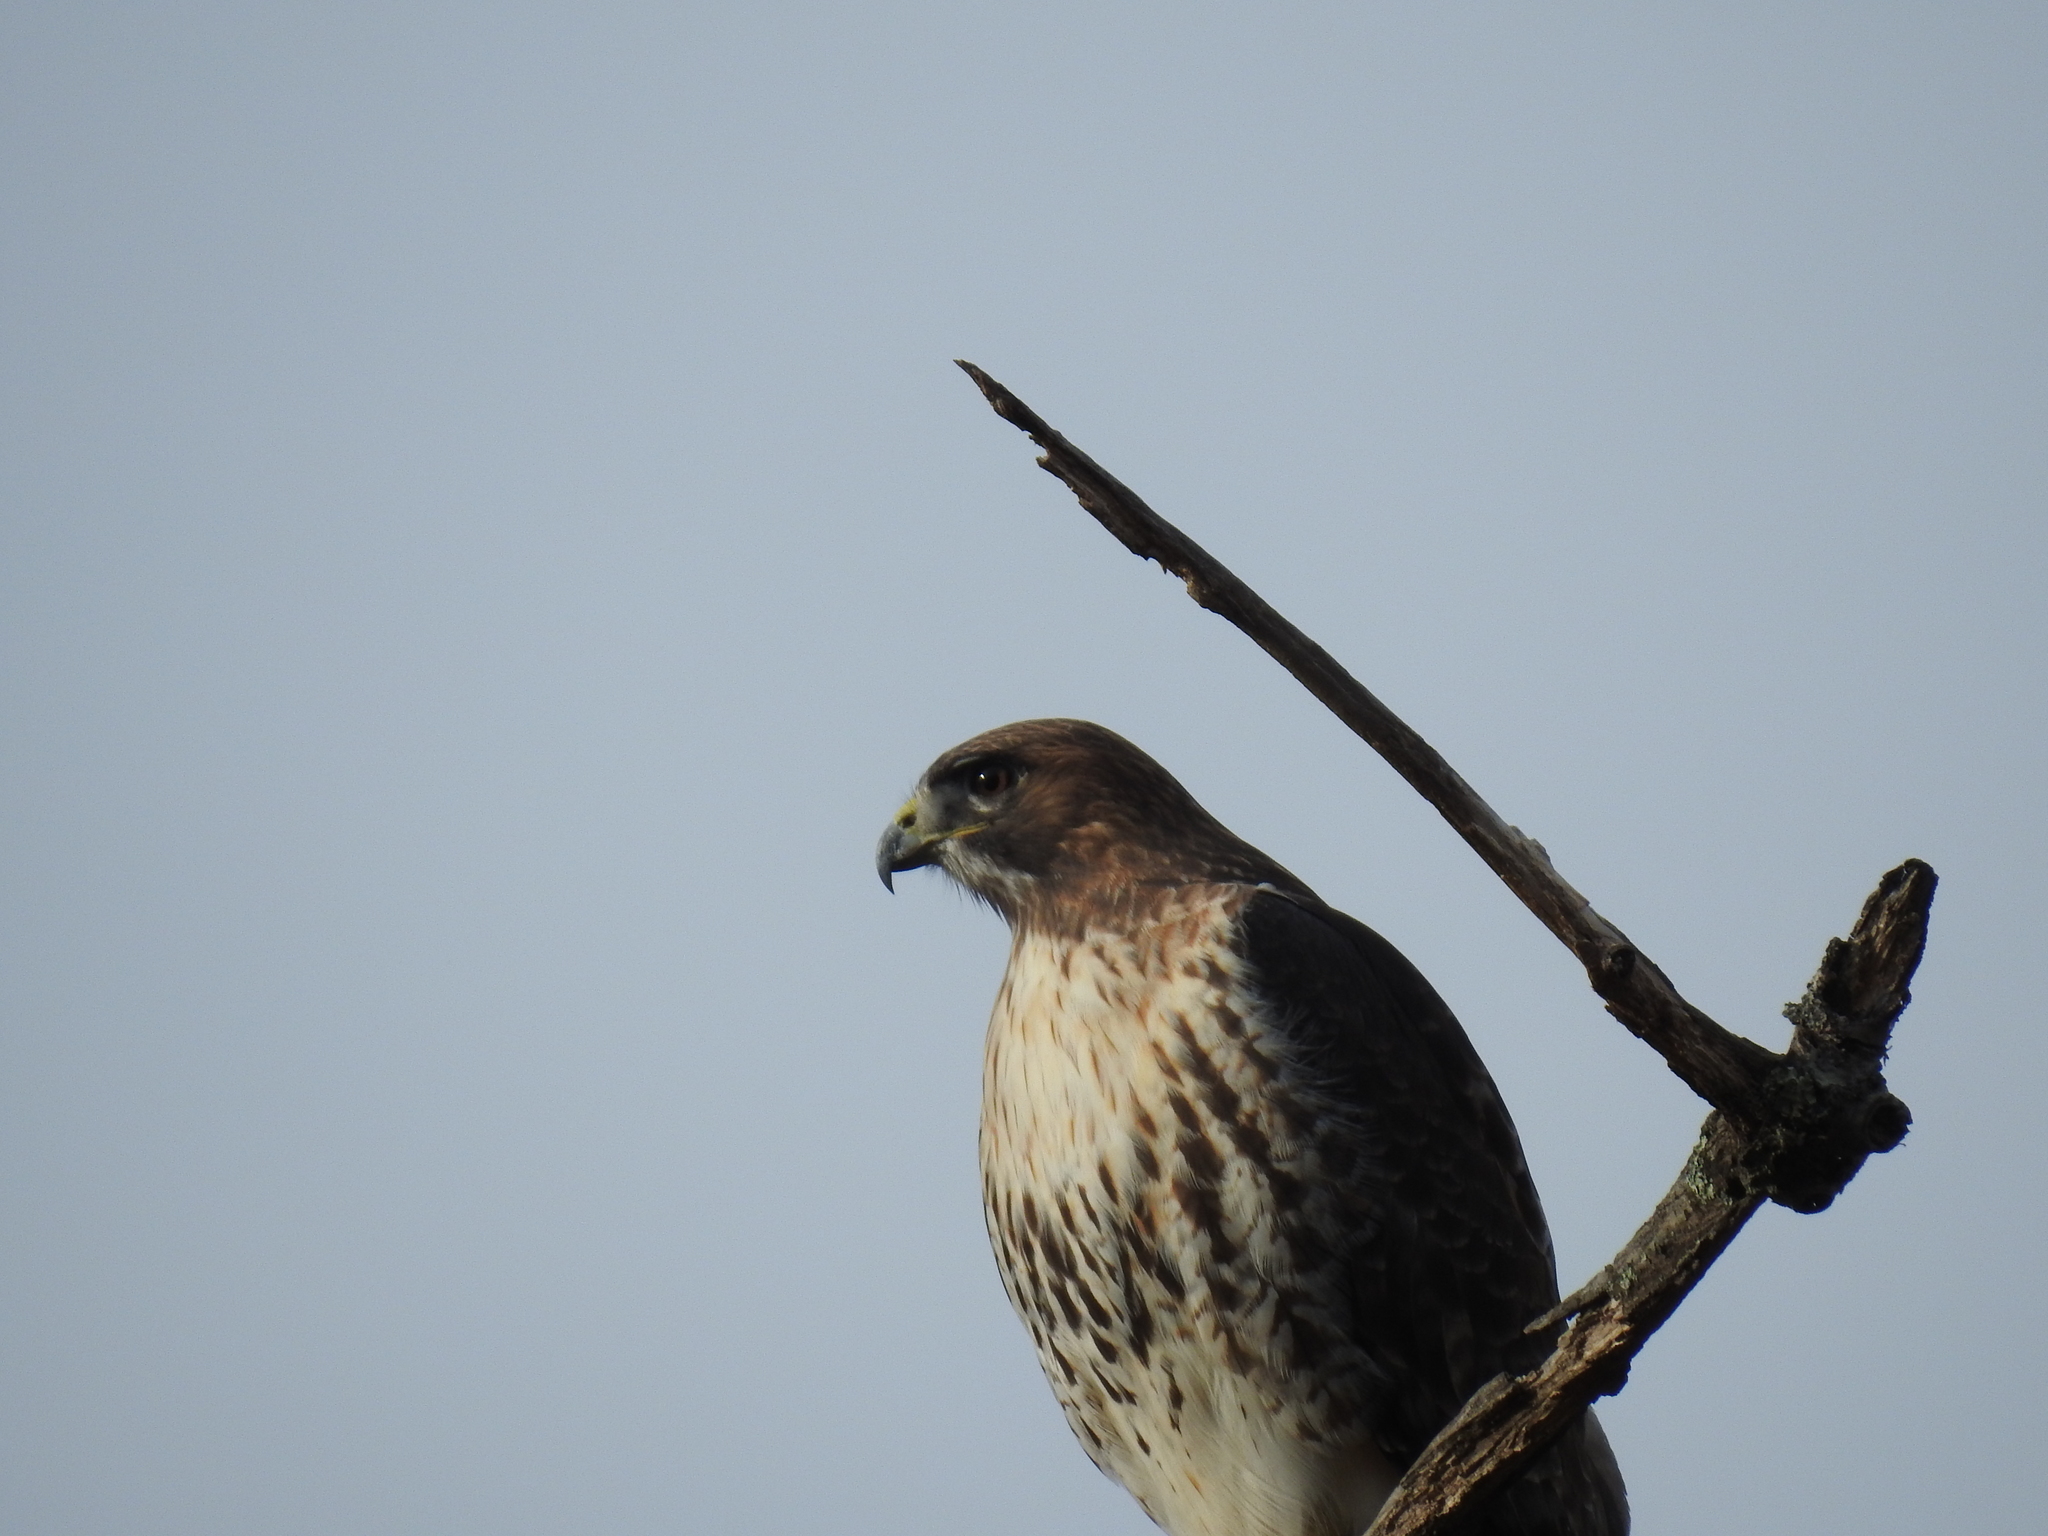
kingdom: Animalia
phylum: Chordata
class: Aves
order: Accipitriformes
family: Accipitridae
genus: Buteo
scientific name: Buteo jamaicensis
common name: Red-tailed hawk
